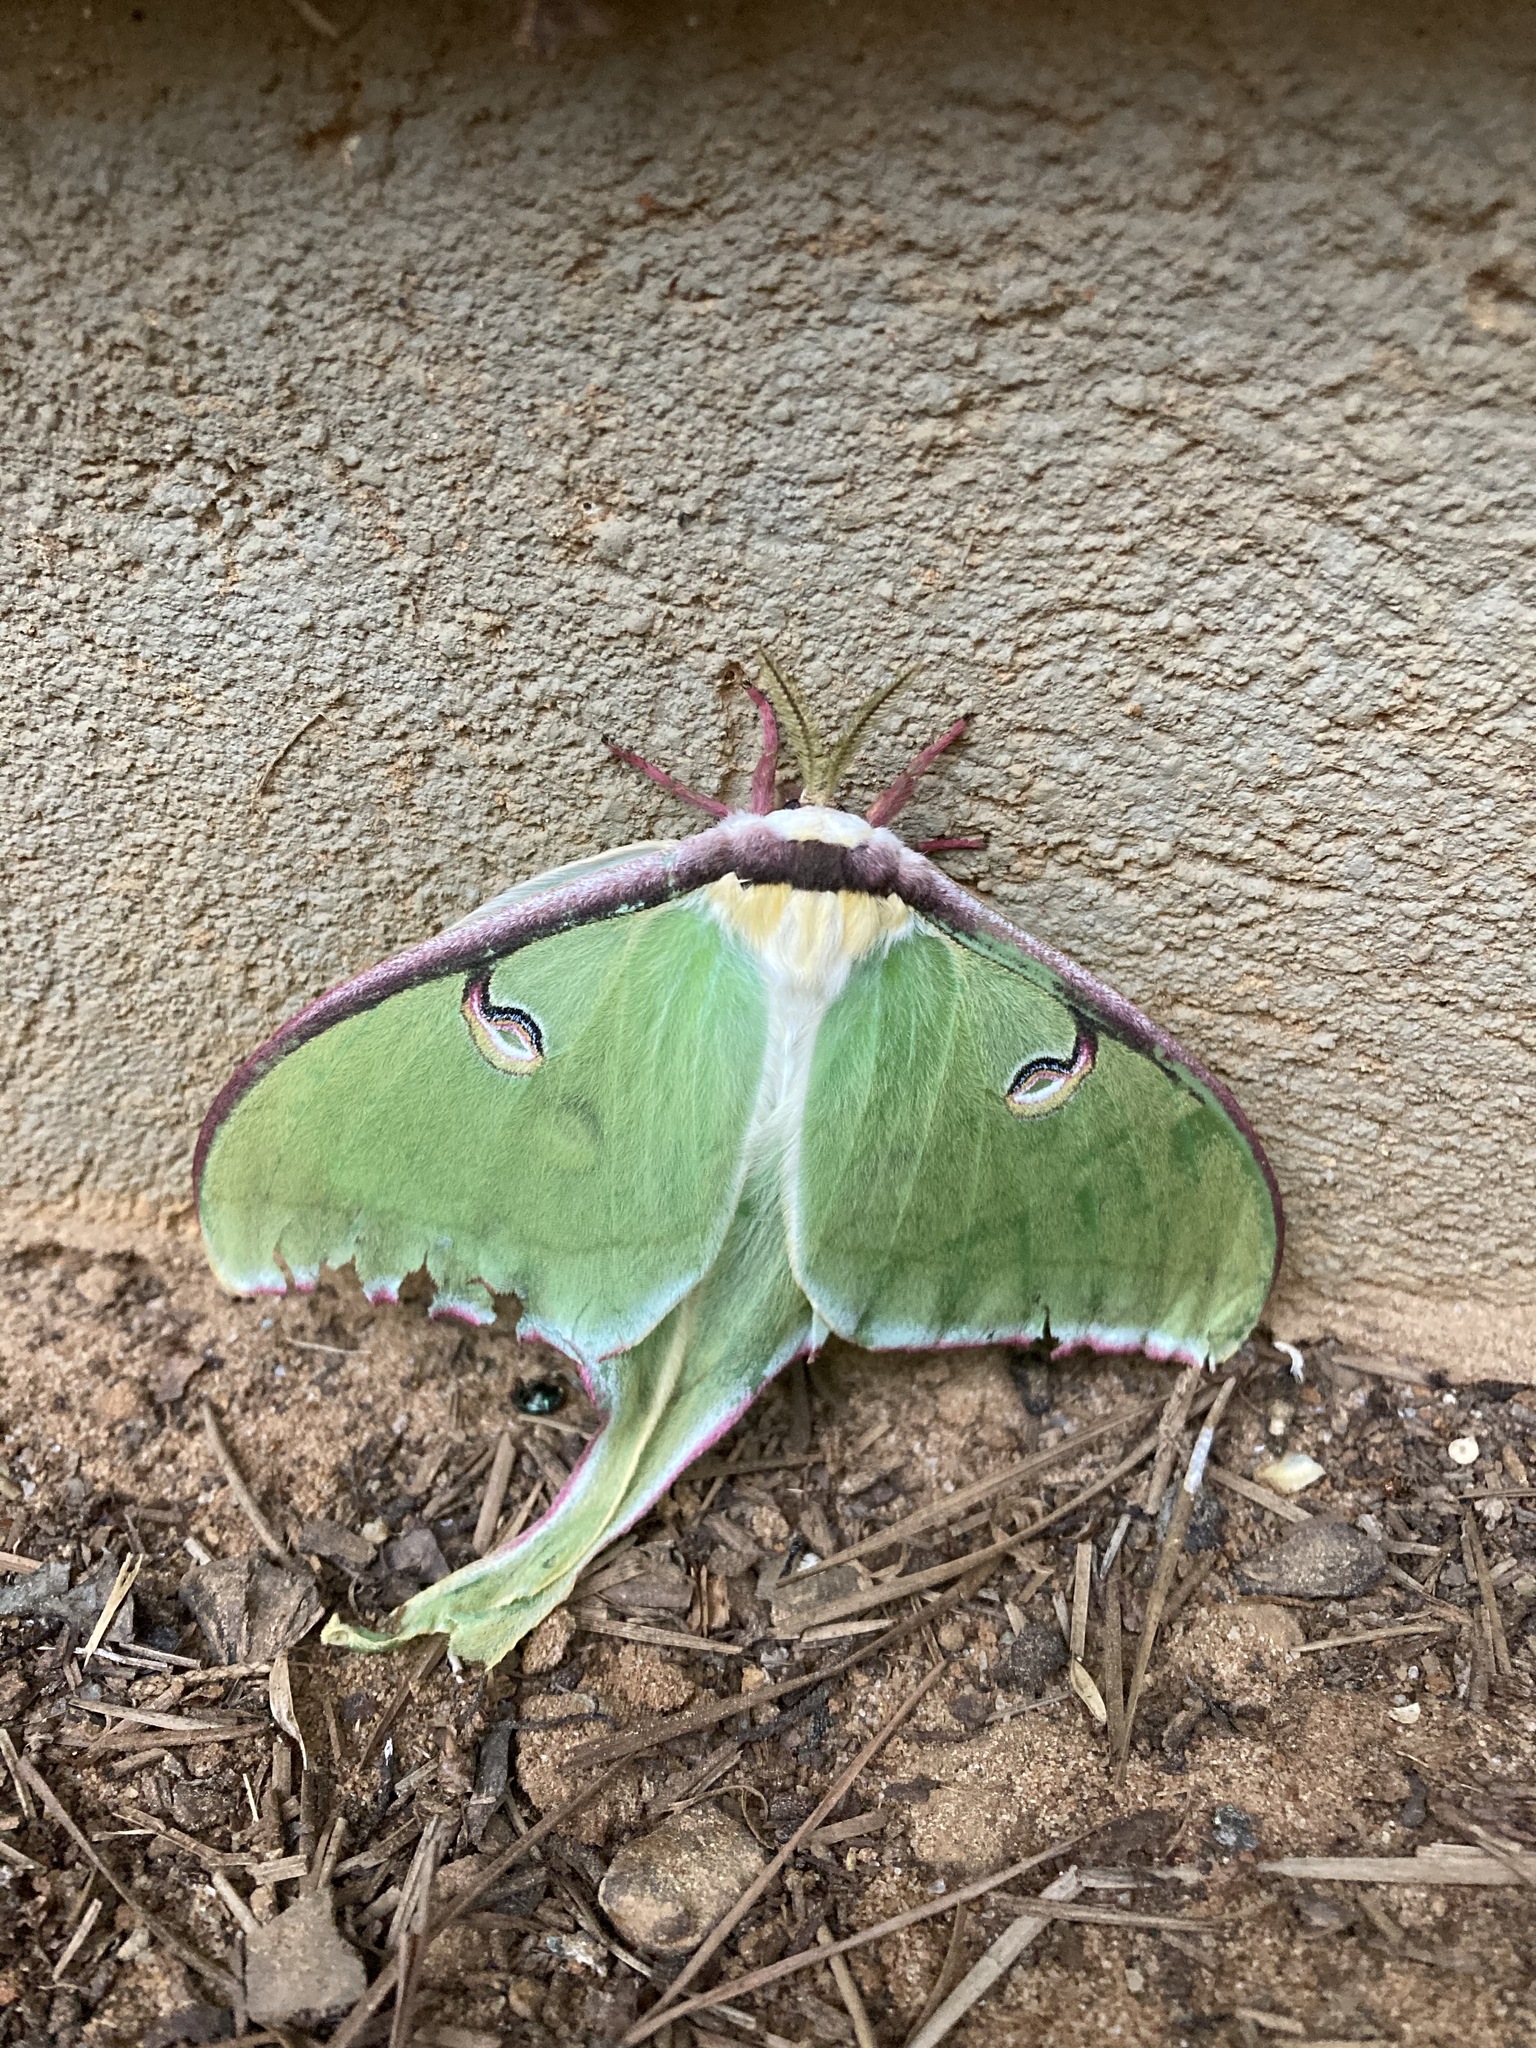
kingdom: Animalia
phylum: Arthropoda
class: Insecta
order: Lepidoptera
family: Saturniidae
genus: Actias
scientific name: Actias luna
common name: Luna moth
